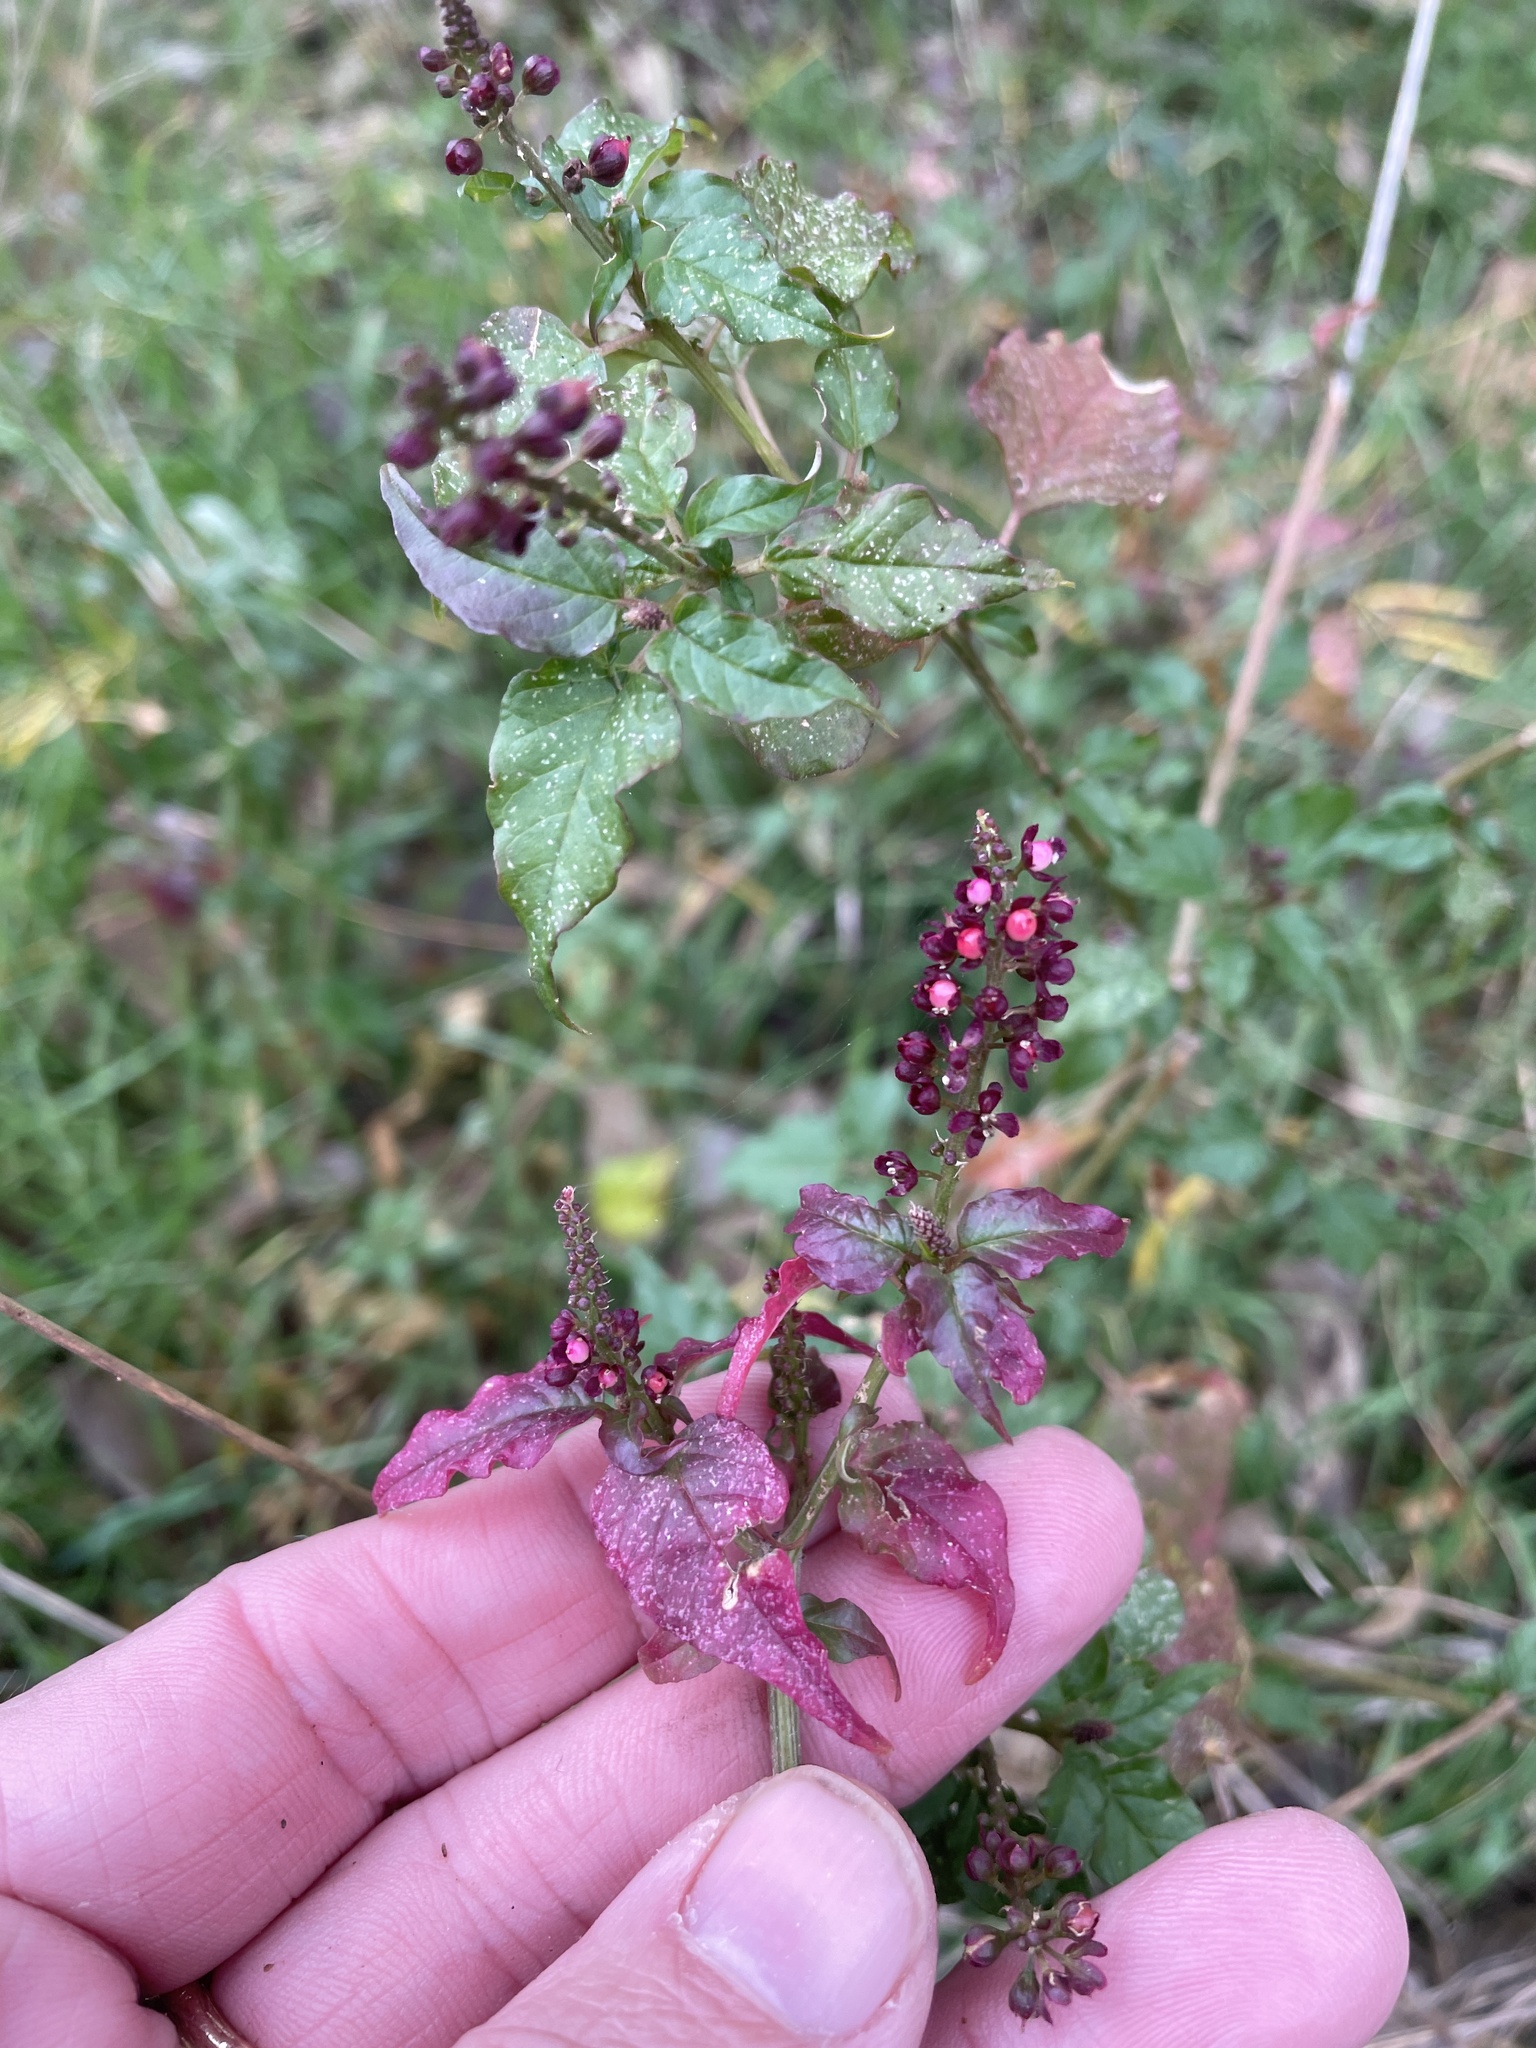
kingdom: Plantae
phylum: Tracheophyta
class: Magnoliopsida
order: Caryophyllales
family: Phytolaccaceae
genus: Rivina
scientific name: Rivina humilis
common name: Rougeplant
